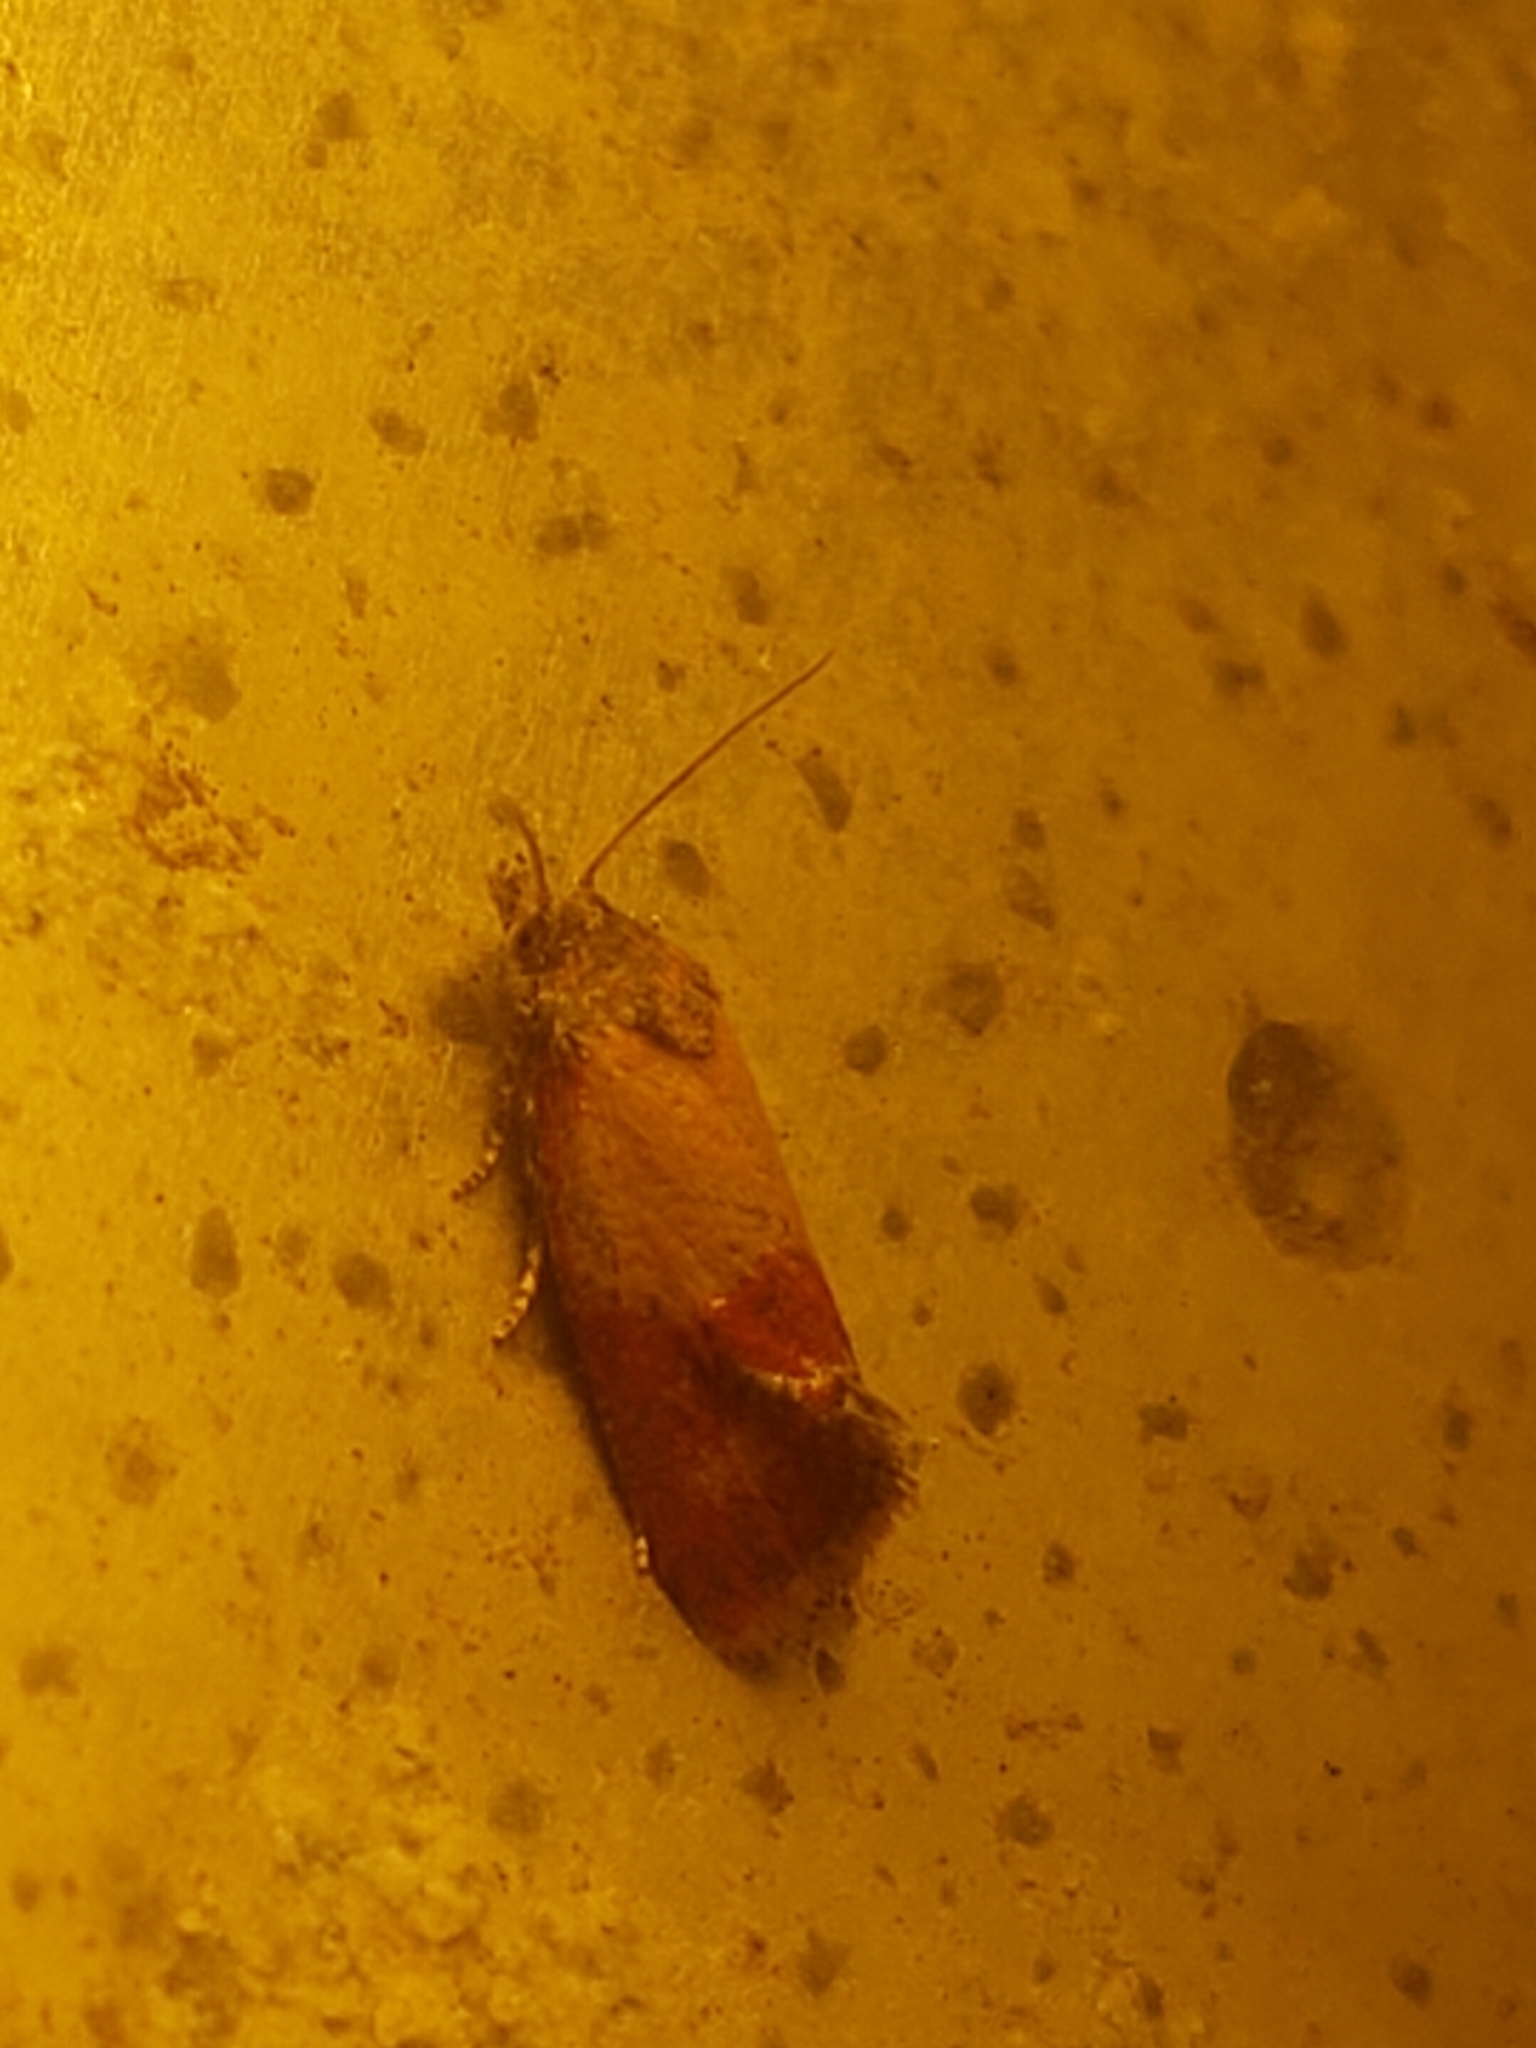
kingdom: Animalia
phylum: Arthropoda
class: Insecta
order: Lepidoptera
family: Tortricidae
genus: Conchylis
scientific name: Conchylis oenotherana
